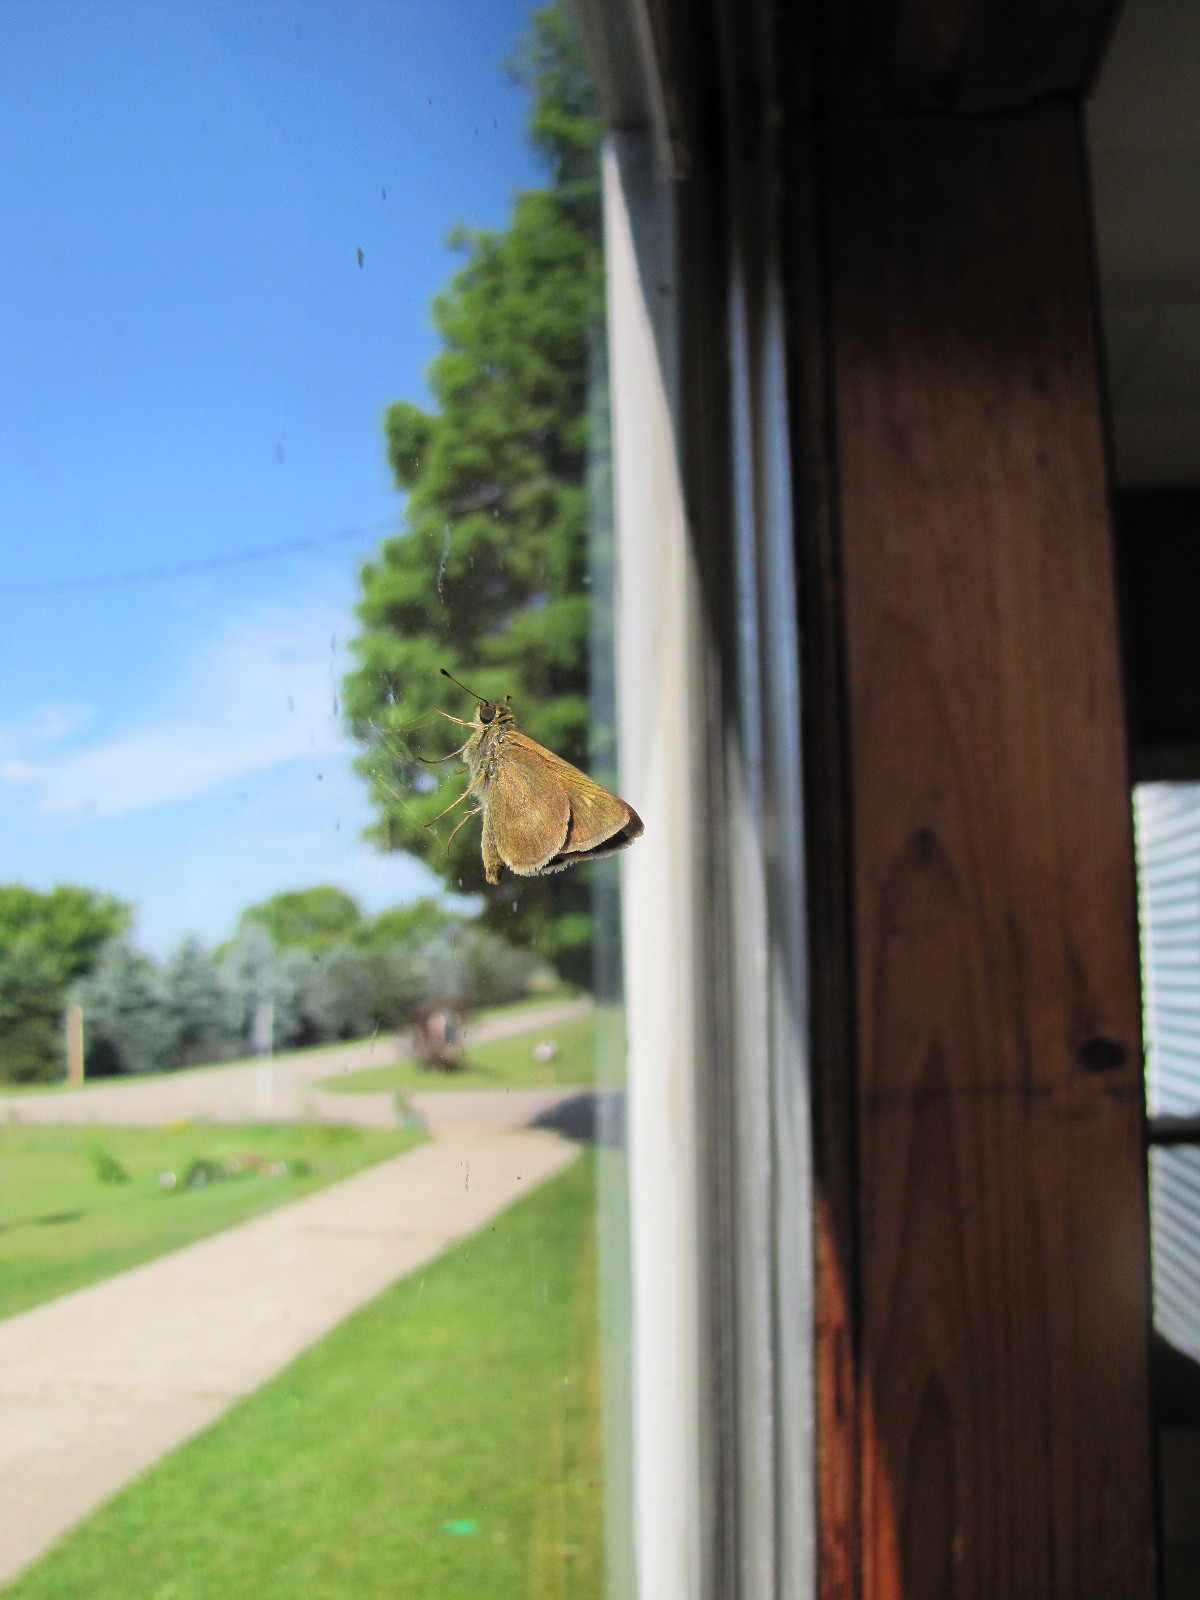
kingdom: Animalia
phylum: Arthropoda
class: Insecta
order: Lepidoptera
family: Hesperiidae
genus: Polites
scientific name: Polites egeremet
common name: Northern broken-dash
